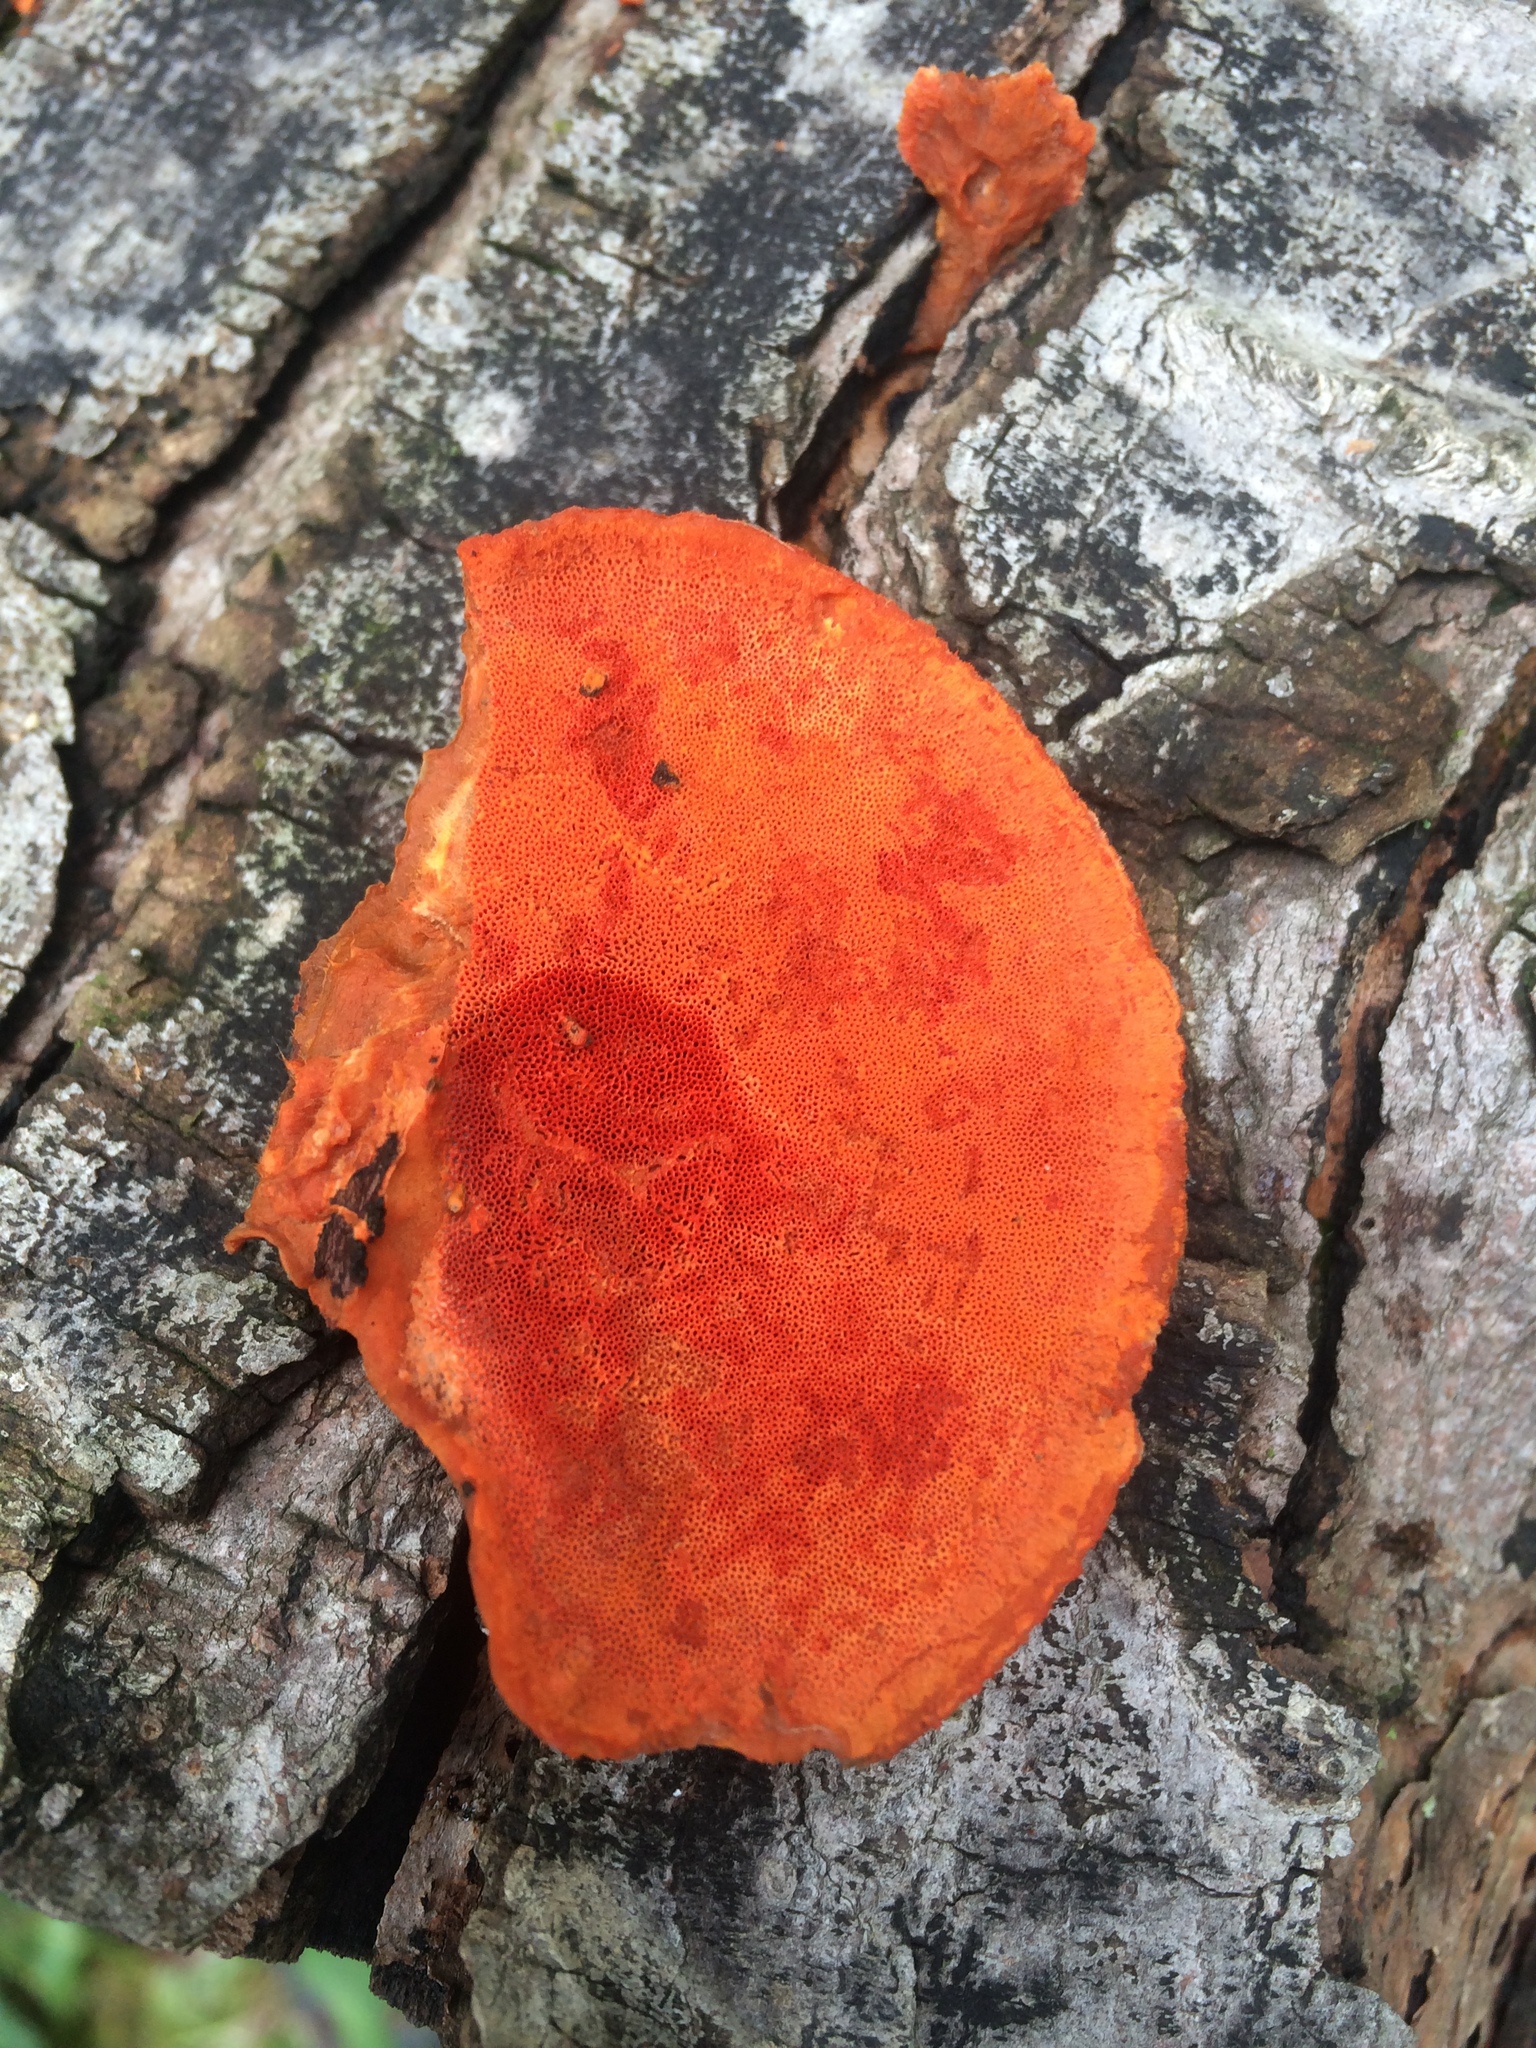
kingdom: Fungi
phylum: Basidiomycota
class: Agaricomycetes
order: Polyporales
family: Polyporaceae
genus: Trametes
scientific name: Trametes cinnabarina
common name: Northern cinnabar polypore
